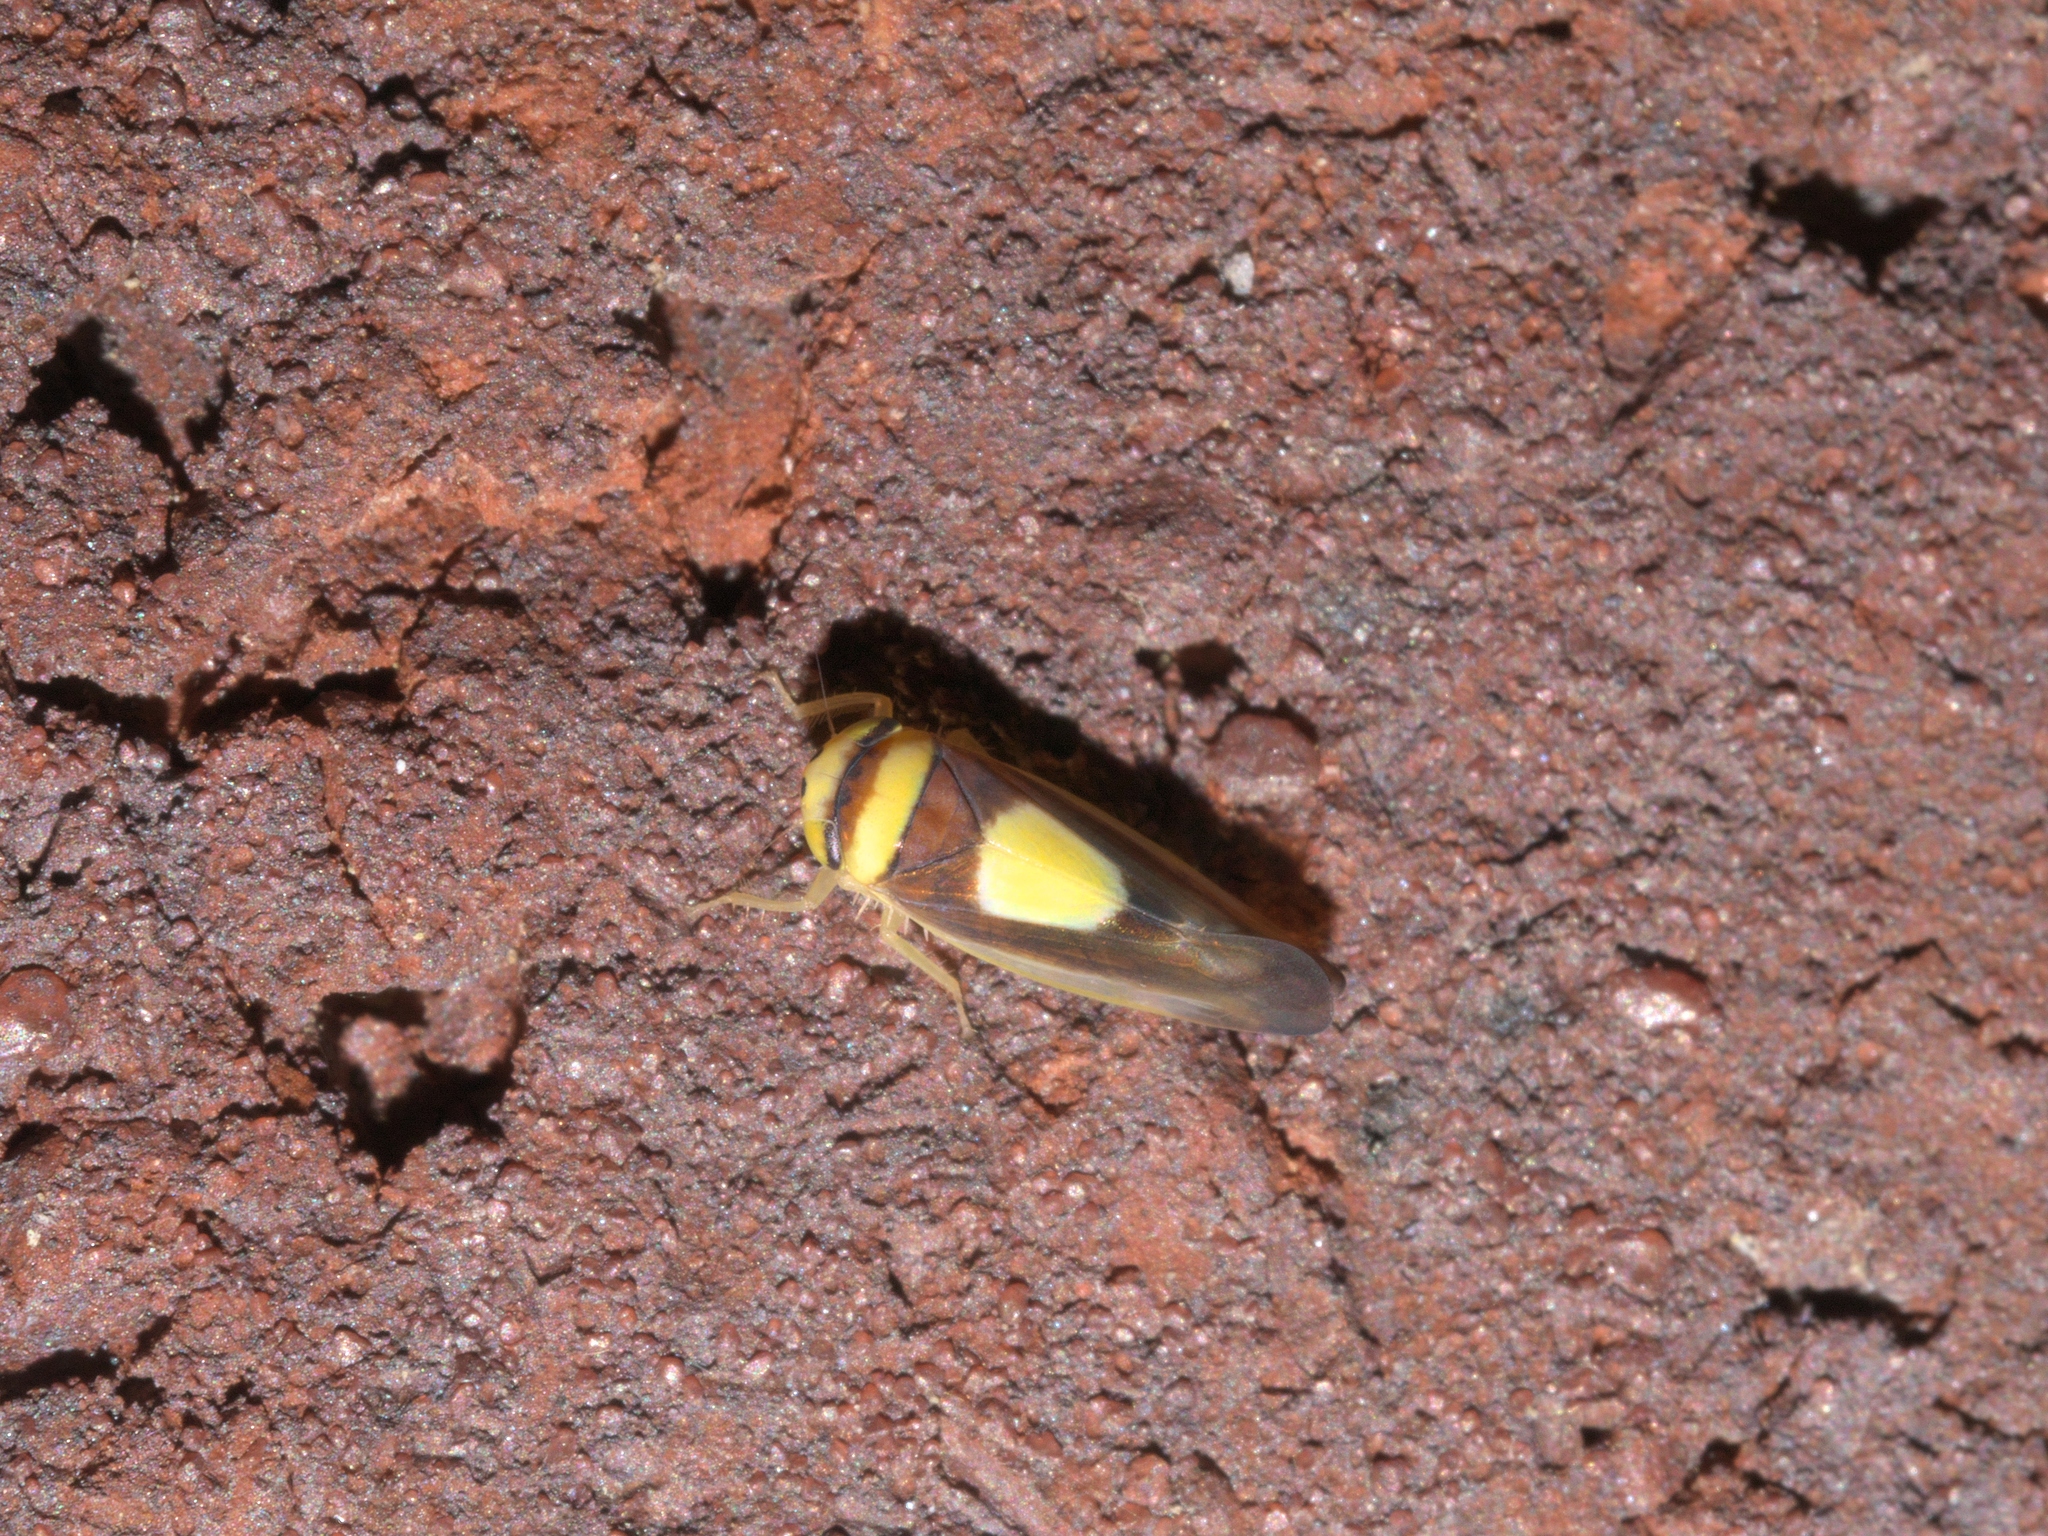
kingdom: Animalia
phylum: Arthropoda
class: Insecta
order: Hemiptera
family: Cicadellidae
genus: Colladonus
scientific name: Colladonus clitellarius
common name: The saddleback leafhopper
